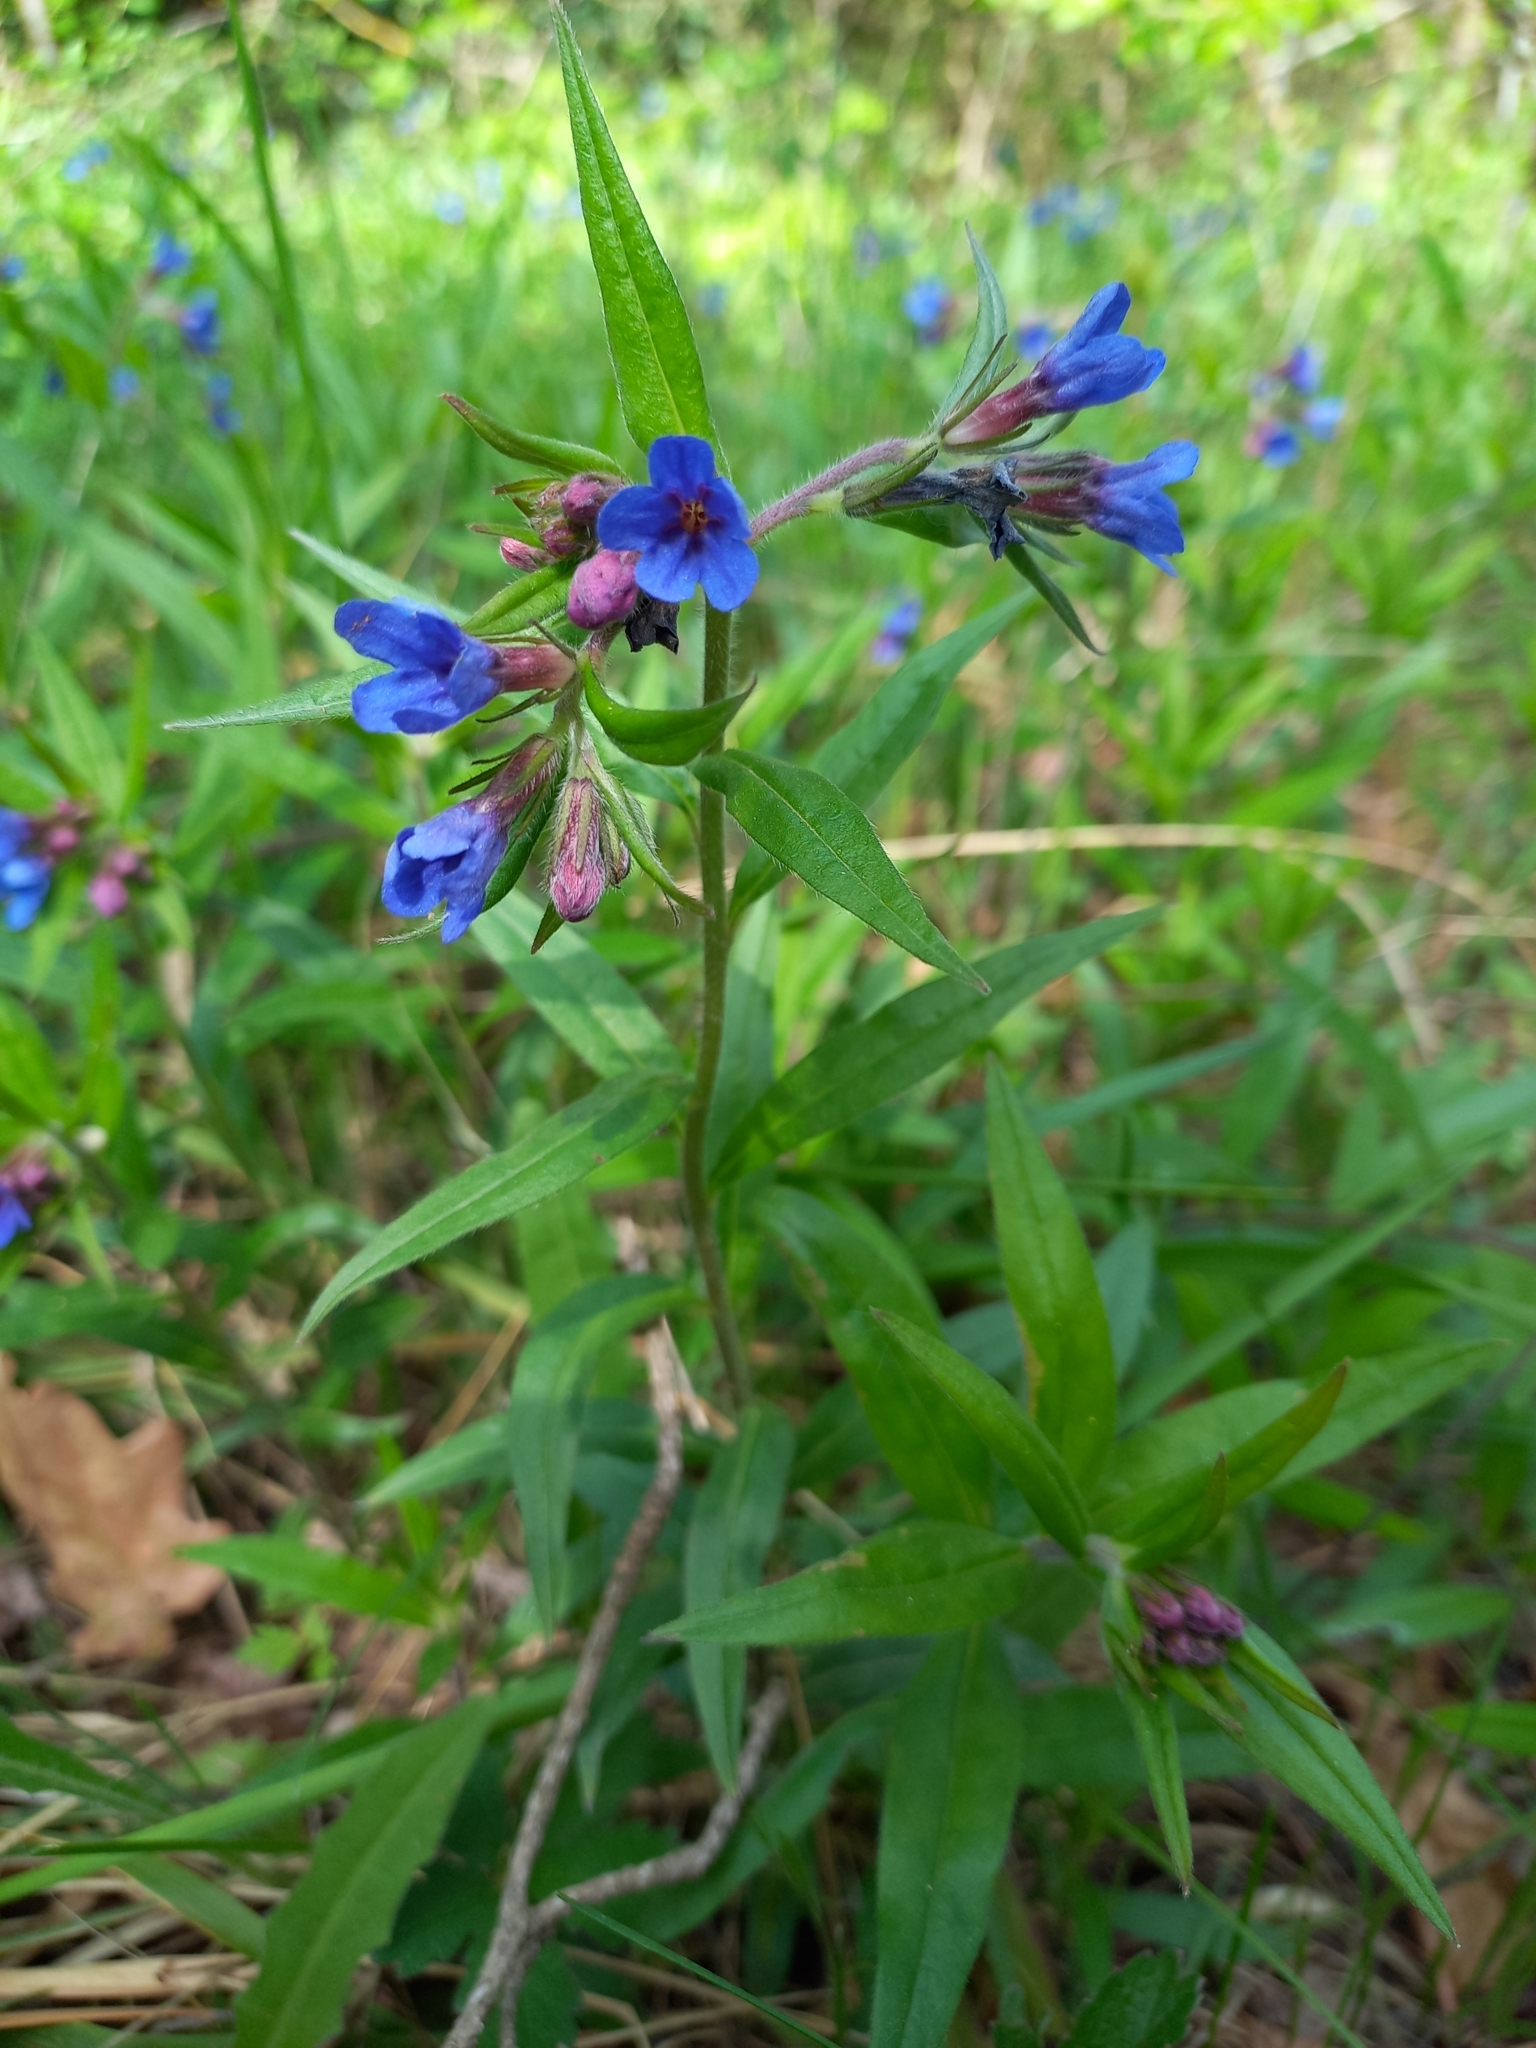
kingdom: Plantae
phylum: Tracheophyta
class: Magnoliopsida
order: Boraginales
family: Boraginaceae
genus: Aegonychon
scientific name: Aegonychon purpurocaeruleum
